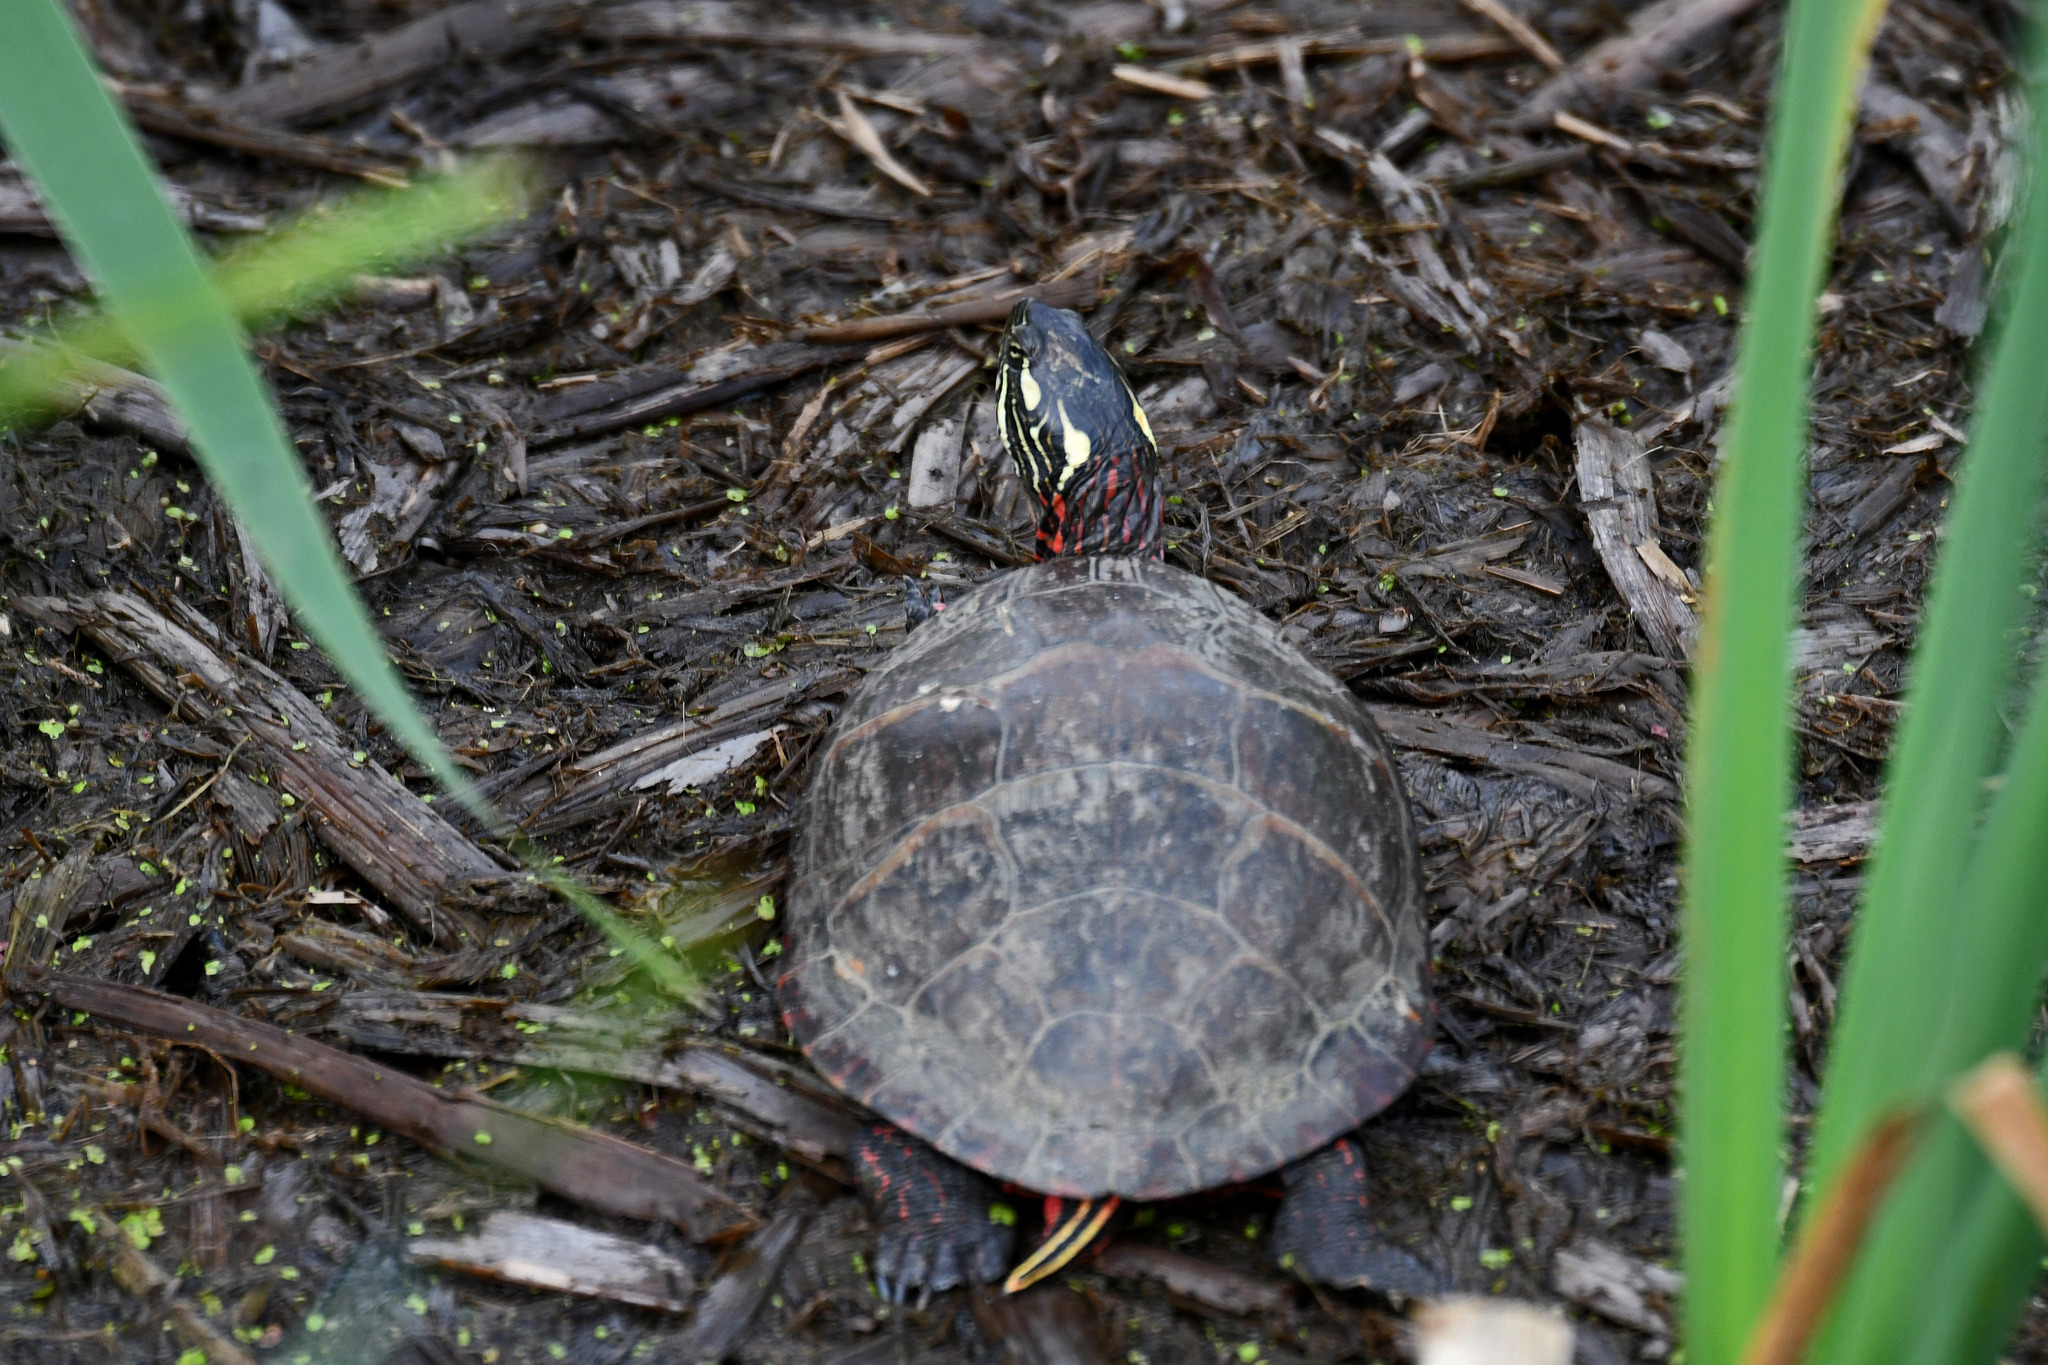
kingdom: Animalia
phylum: Chordata
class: Testudines
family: Emydidae
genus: Chrysemys
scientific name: Chrysemys picta
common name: Painted turtle
